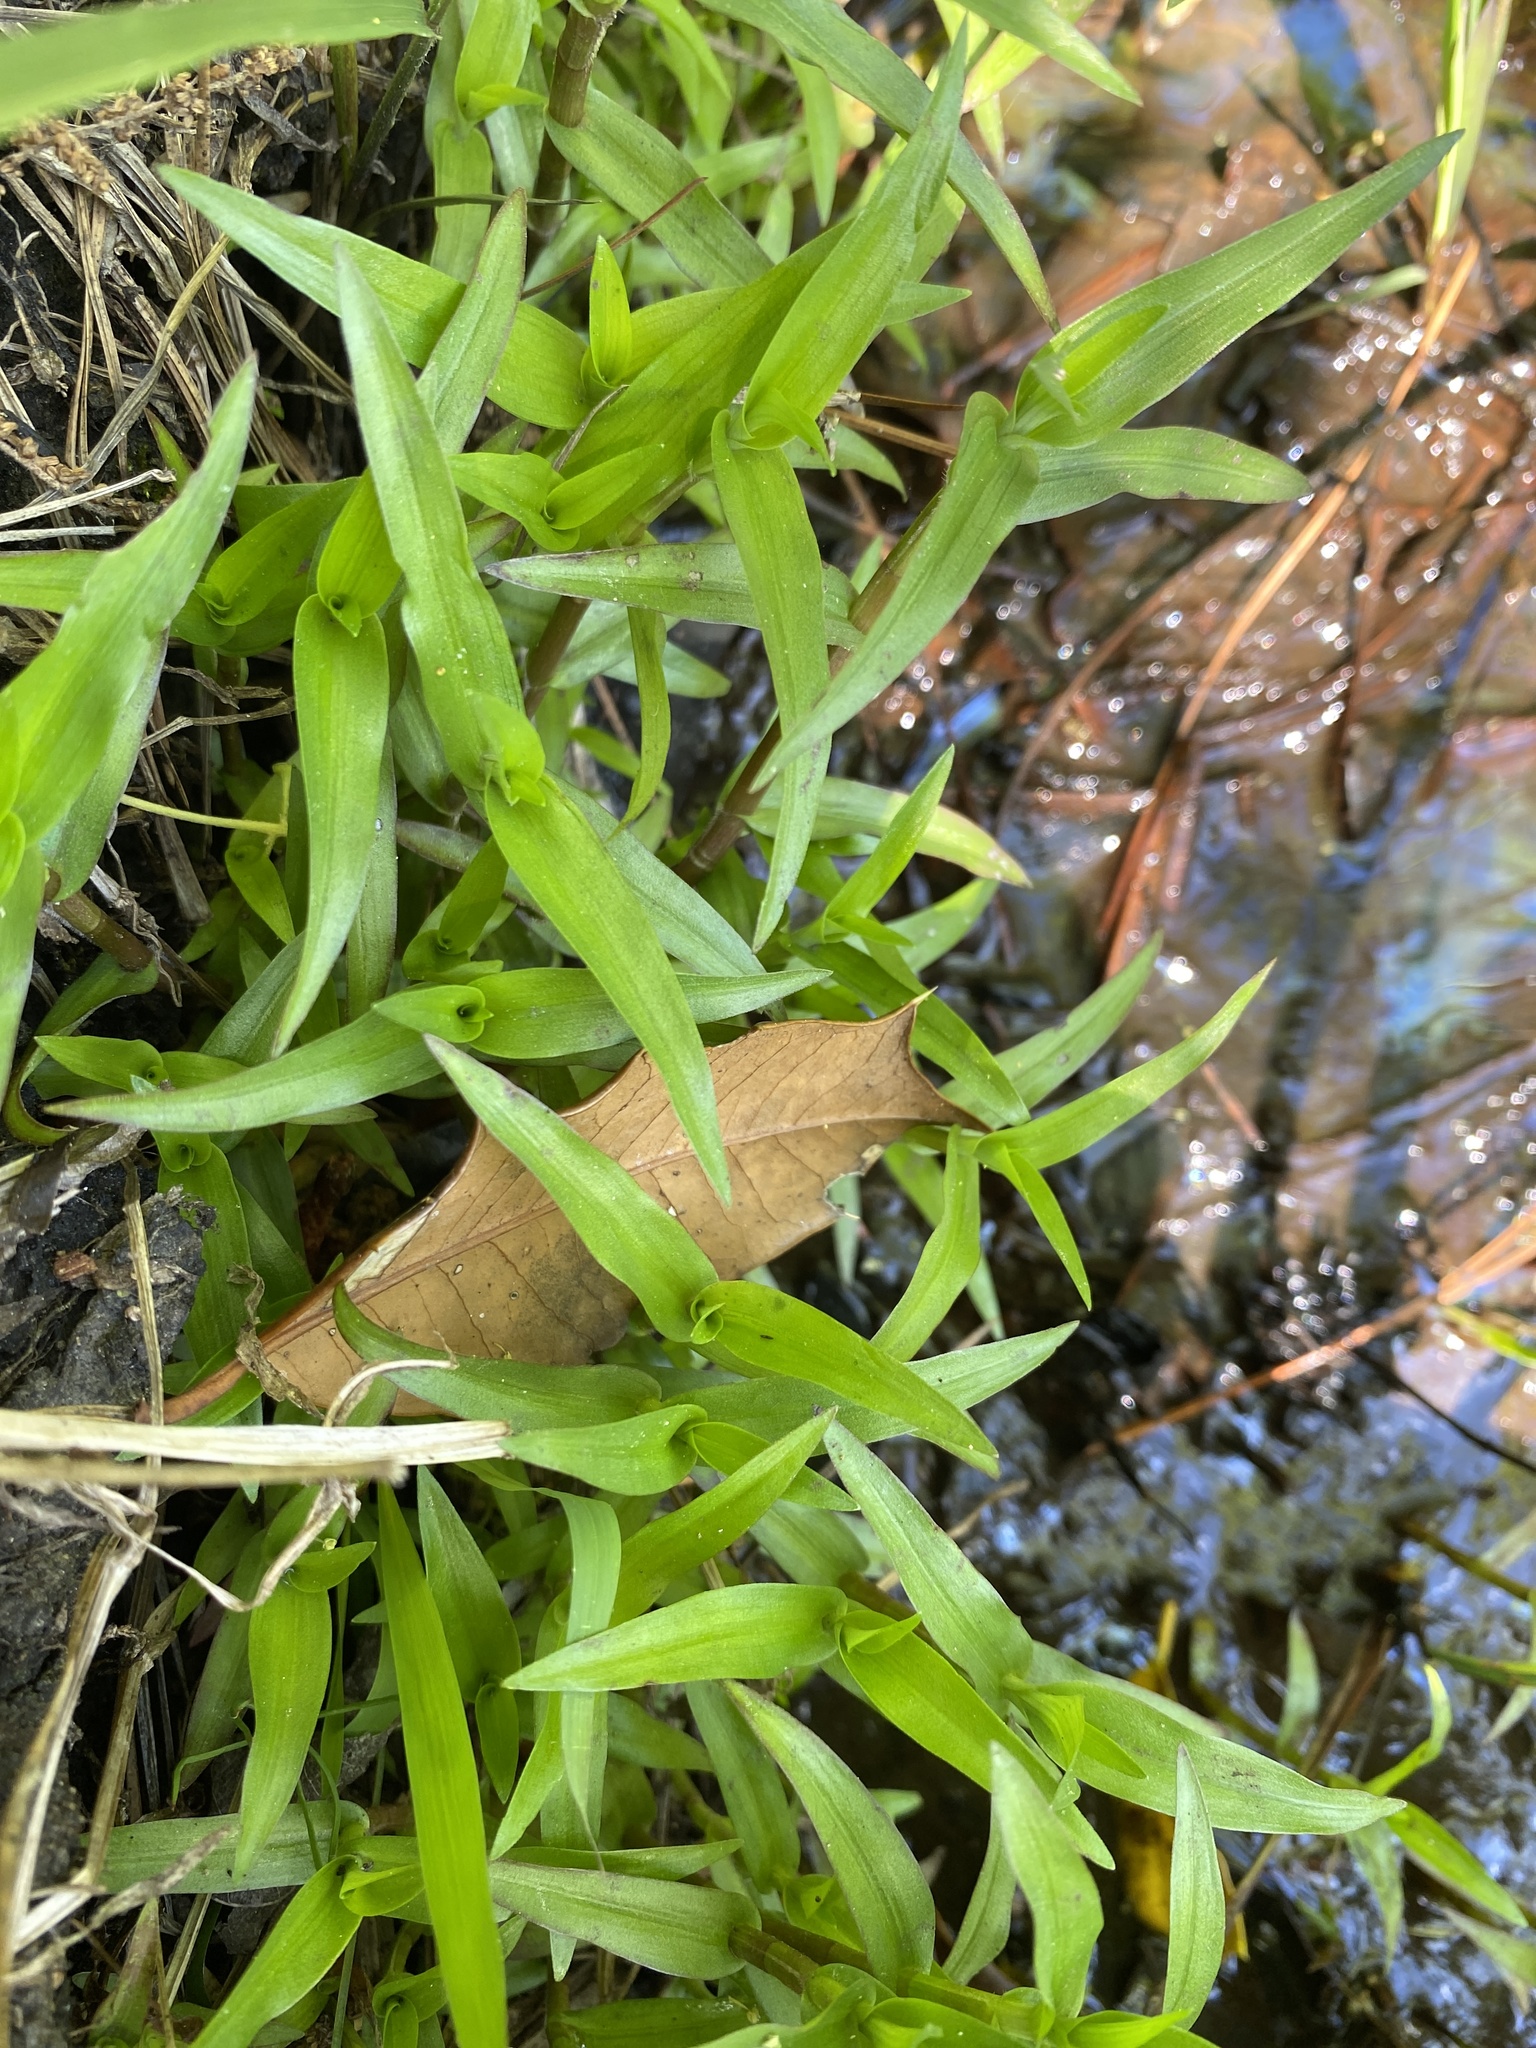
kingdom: Plantae
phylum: Tracheophyta
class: Liliopsida
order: Commelinales
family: Commelinaceae
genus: Murdannia
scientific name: Murdannia keisak
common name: Wartremoving herb
